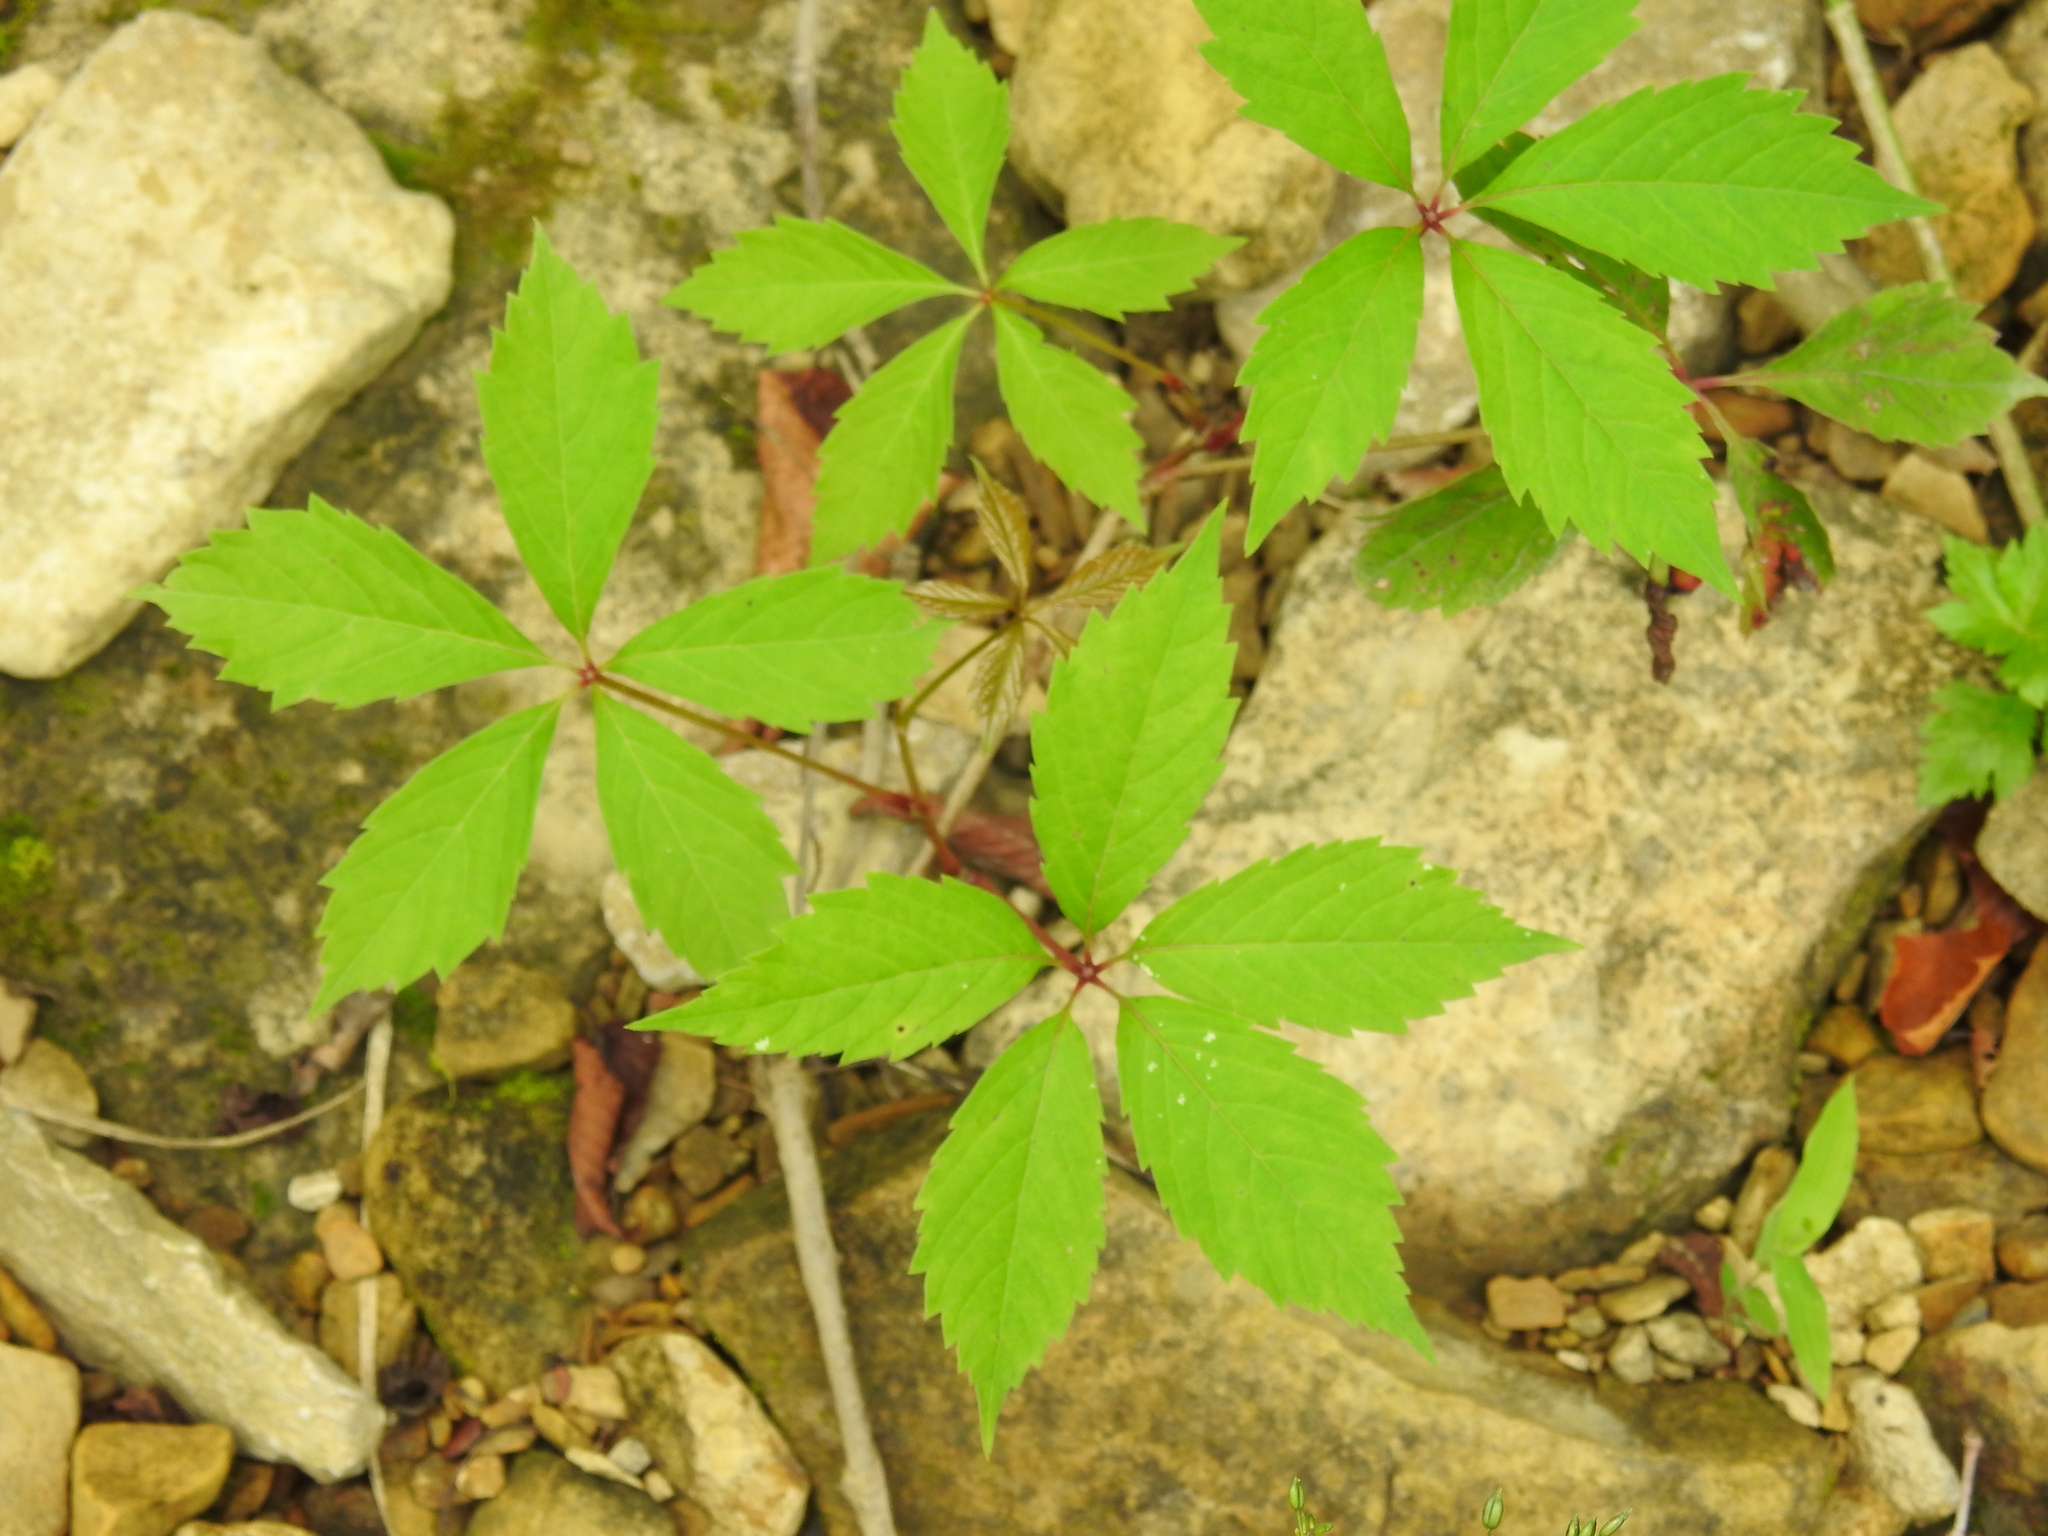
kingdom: Plantae
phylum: Tracheophyta
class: Magnoliopsida
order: Vitales
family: Vitaceae
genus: Parthenocissus
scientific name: Parthenocissus quinquefolia
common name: Virginia-creeper
